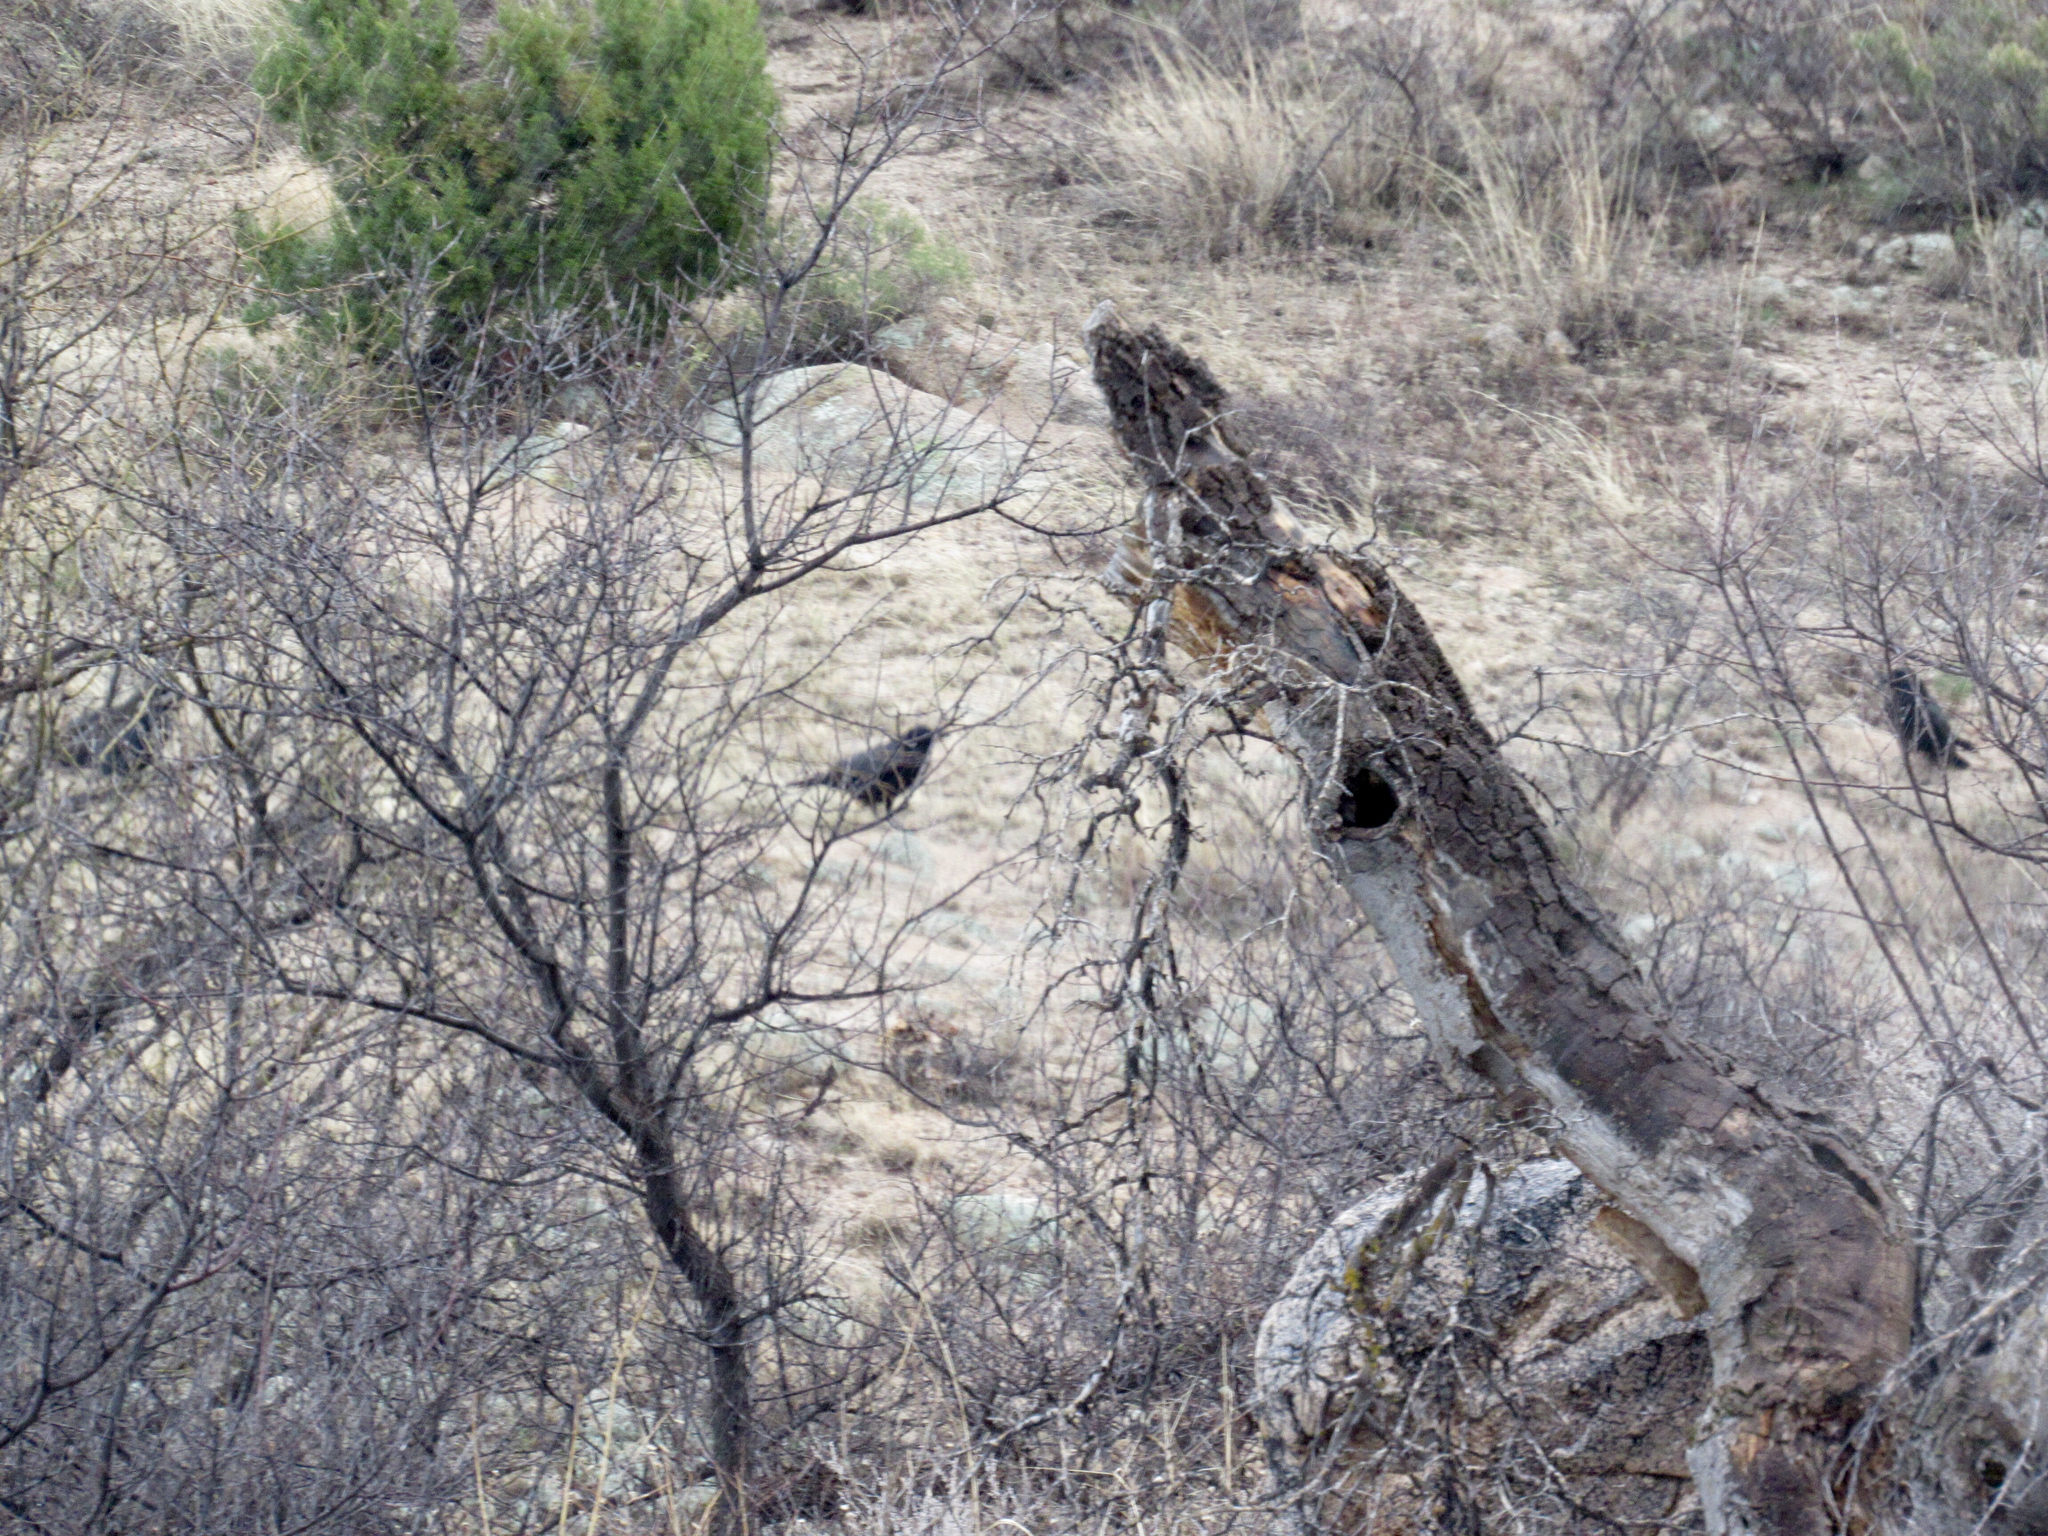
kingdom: Animalia
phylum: Chordata
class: Aves
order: Passeriformes
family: Corvidae
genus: Corvus
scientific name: Corvus corax
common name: Common raven
